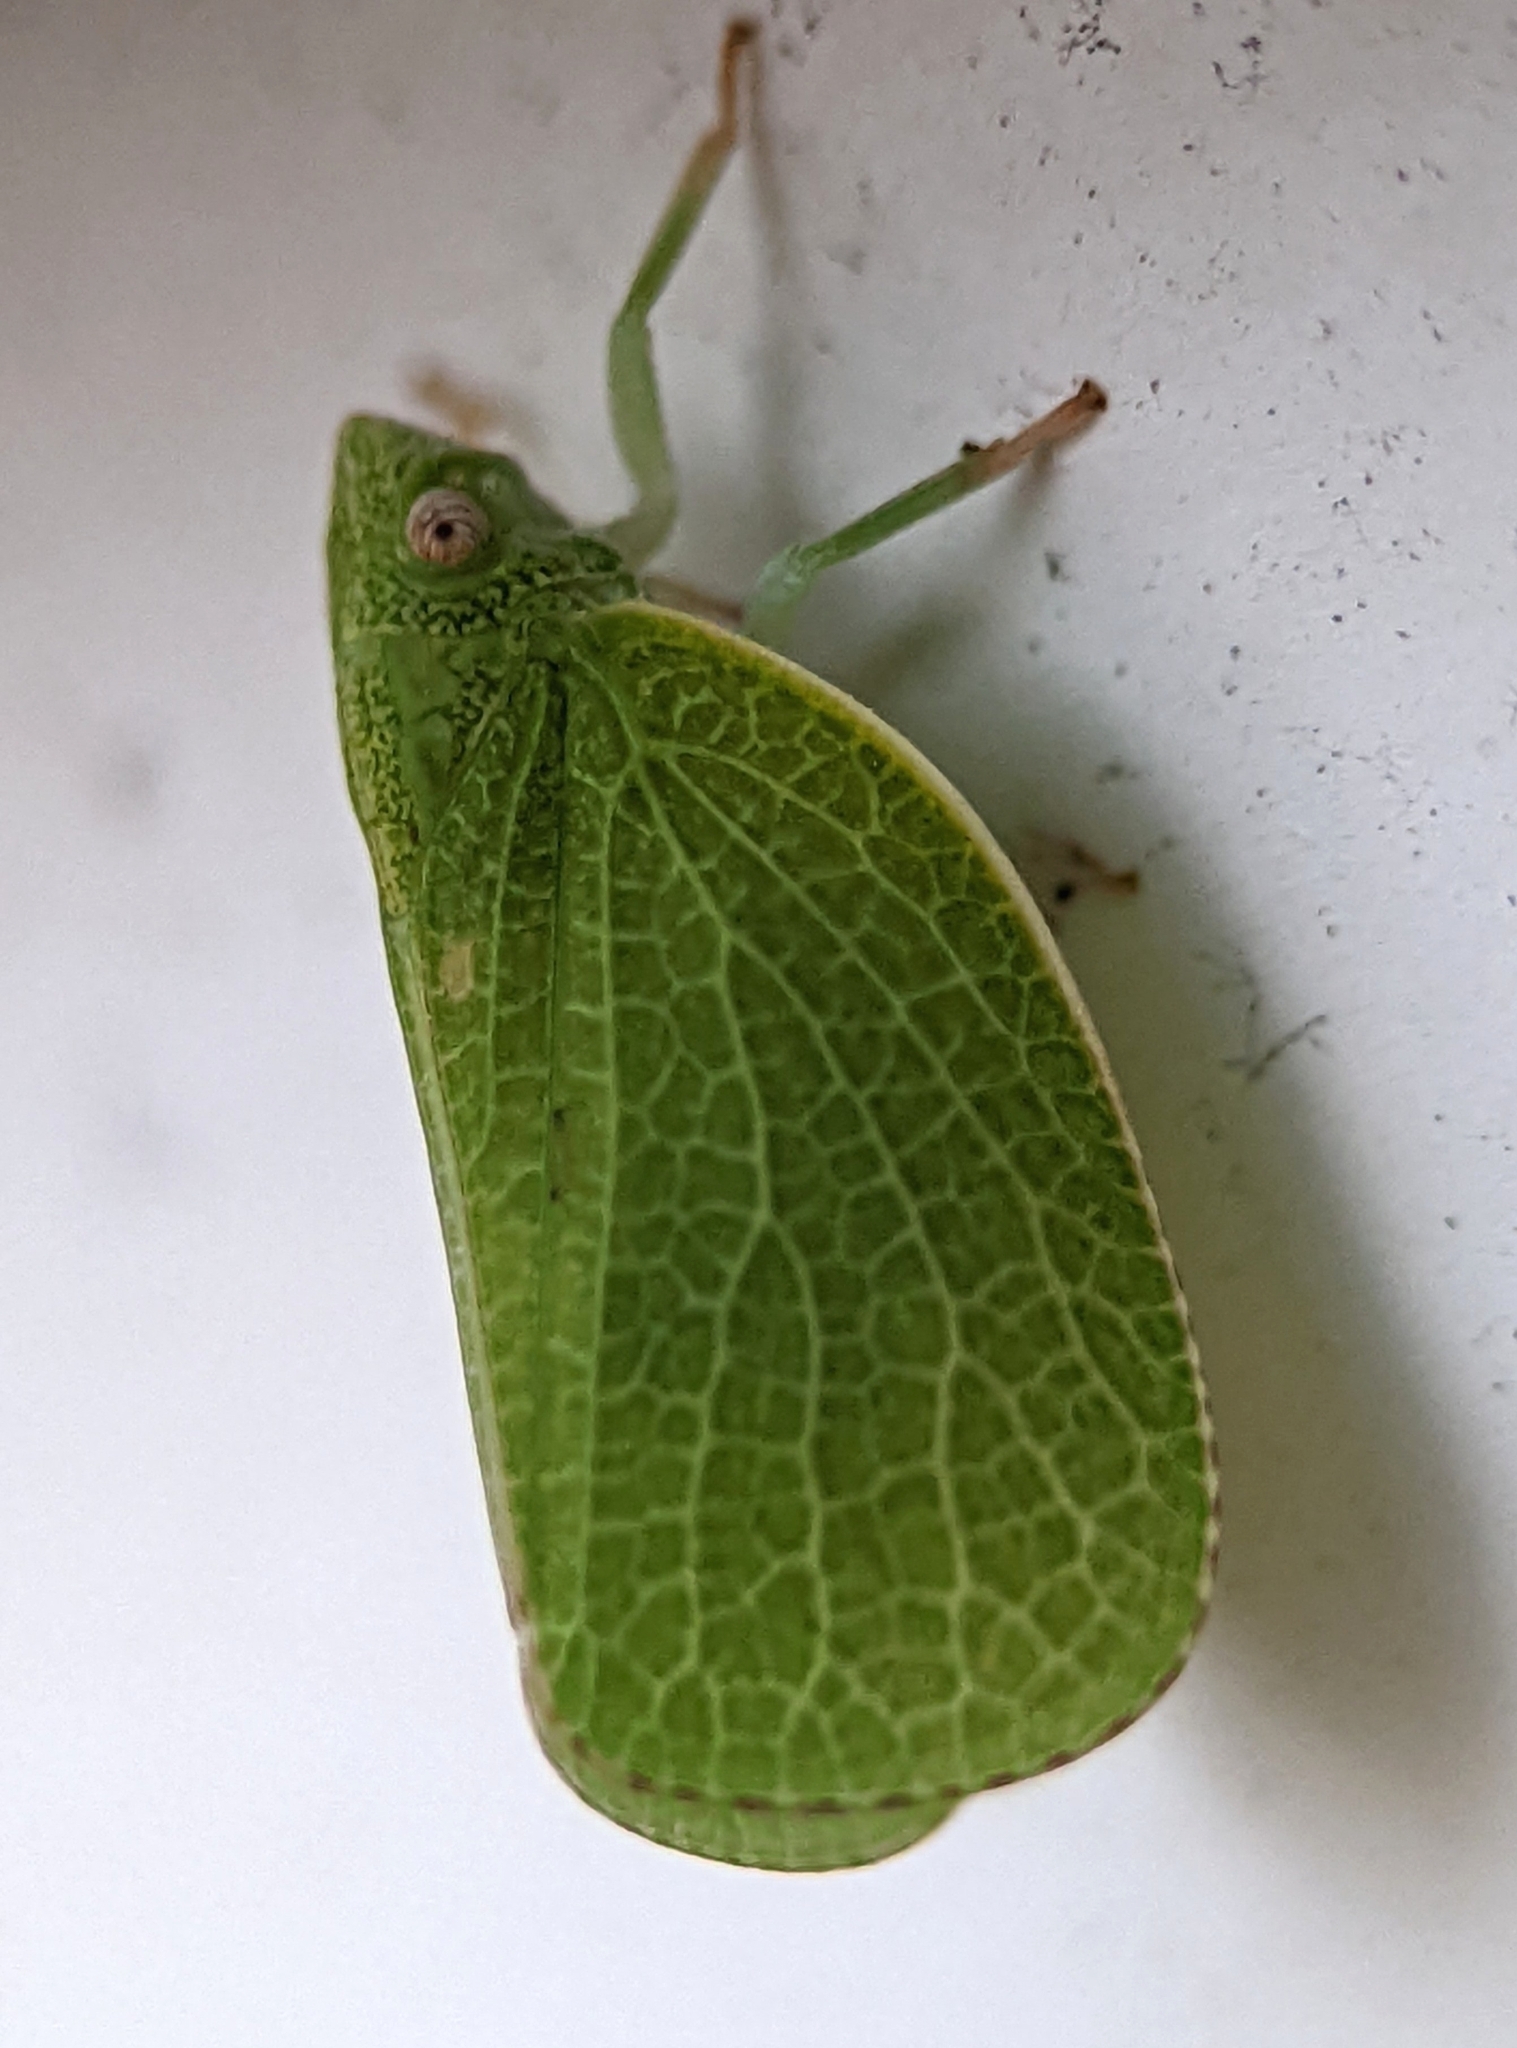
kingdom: Animalia
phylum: Arthropoda
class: Insecta
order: Hemiptera
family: Acanaloniidae
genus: Acanalonia
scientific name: Acanalonia conica
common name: Green cone-headed planthopper
